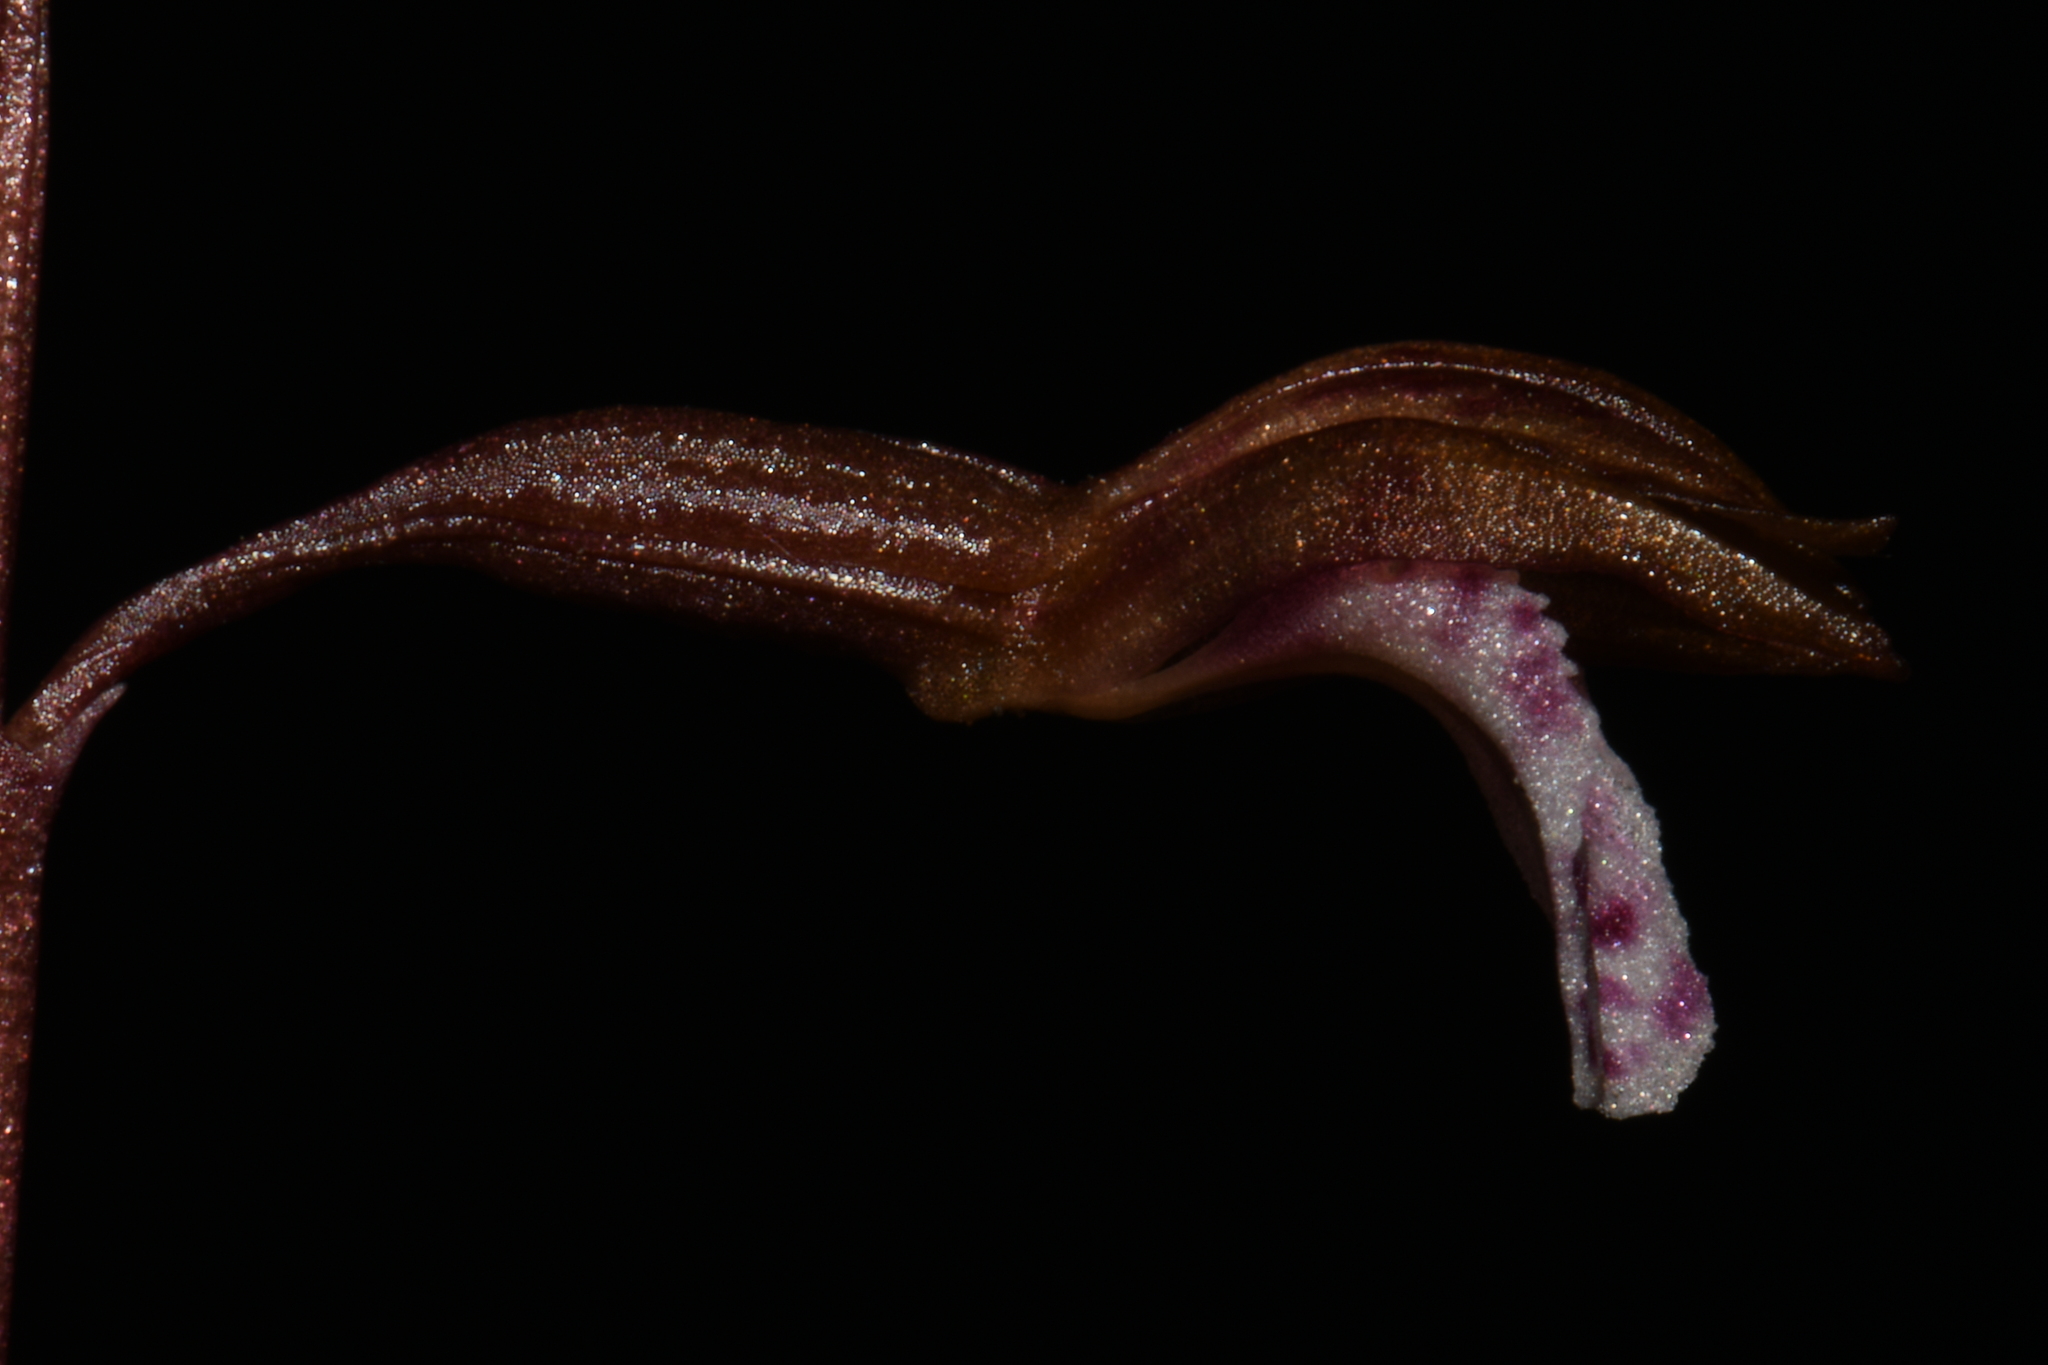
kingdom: Plantae
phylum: Tracheophyta
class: Liliopsida
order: Asparagales
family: Orchidaceae
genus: Corallorhiza
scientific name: Corallorhiza wisteriana
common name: Spring coralroot
